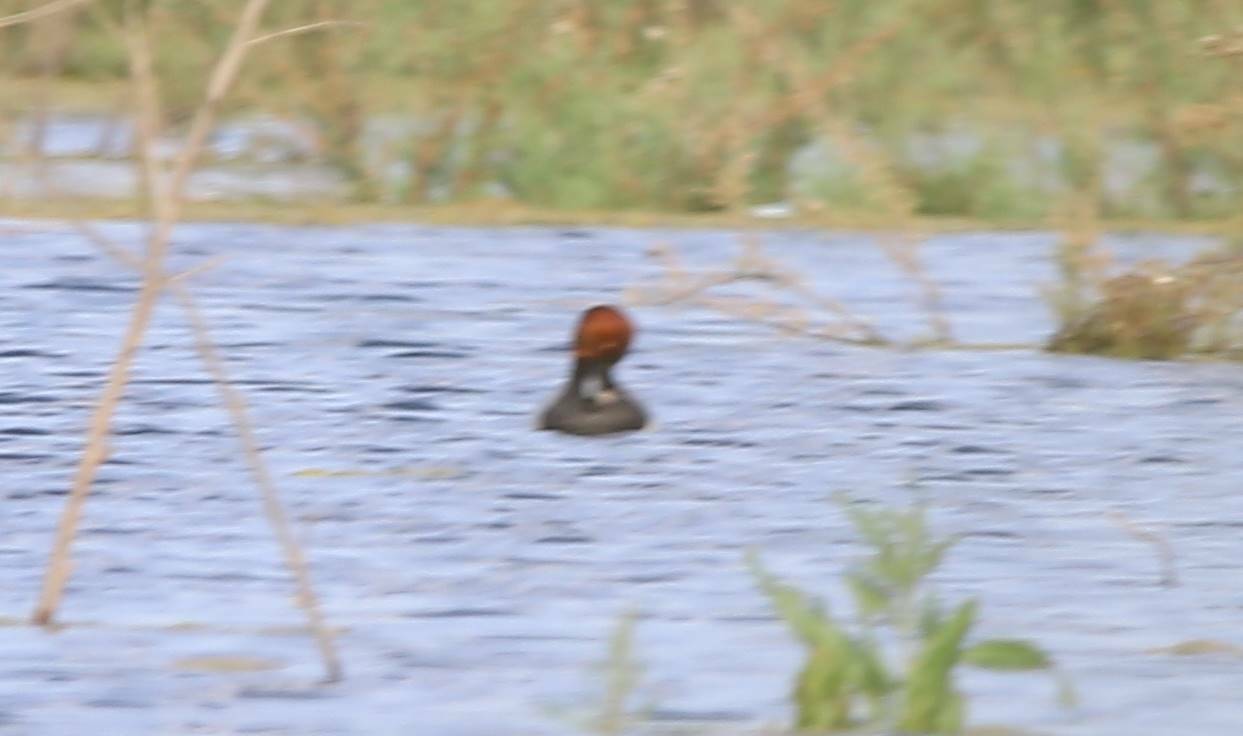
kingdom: Animalia
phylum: Chordata
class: Aves
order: Anseriformes
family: Anatidae
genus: Aythya
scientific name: Aythya ferina
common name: Common pochard
